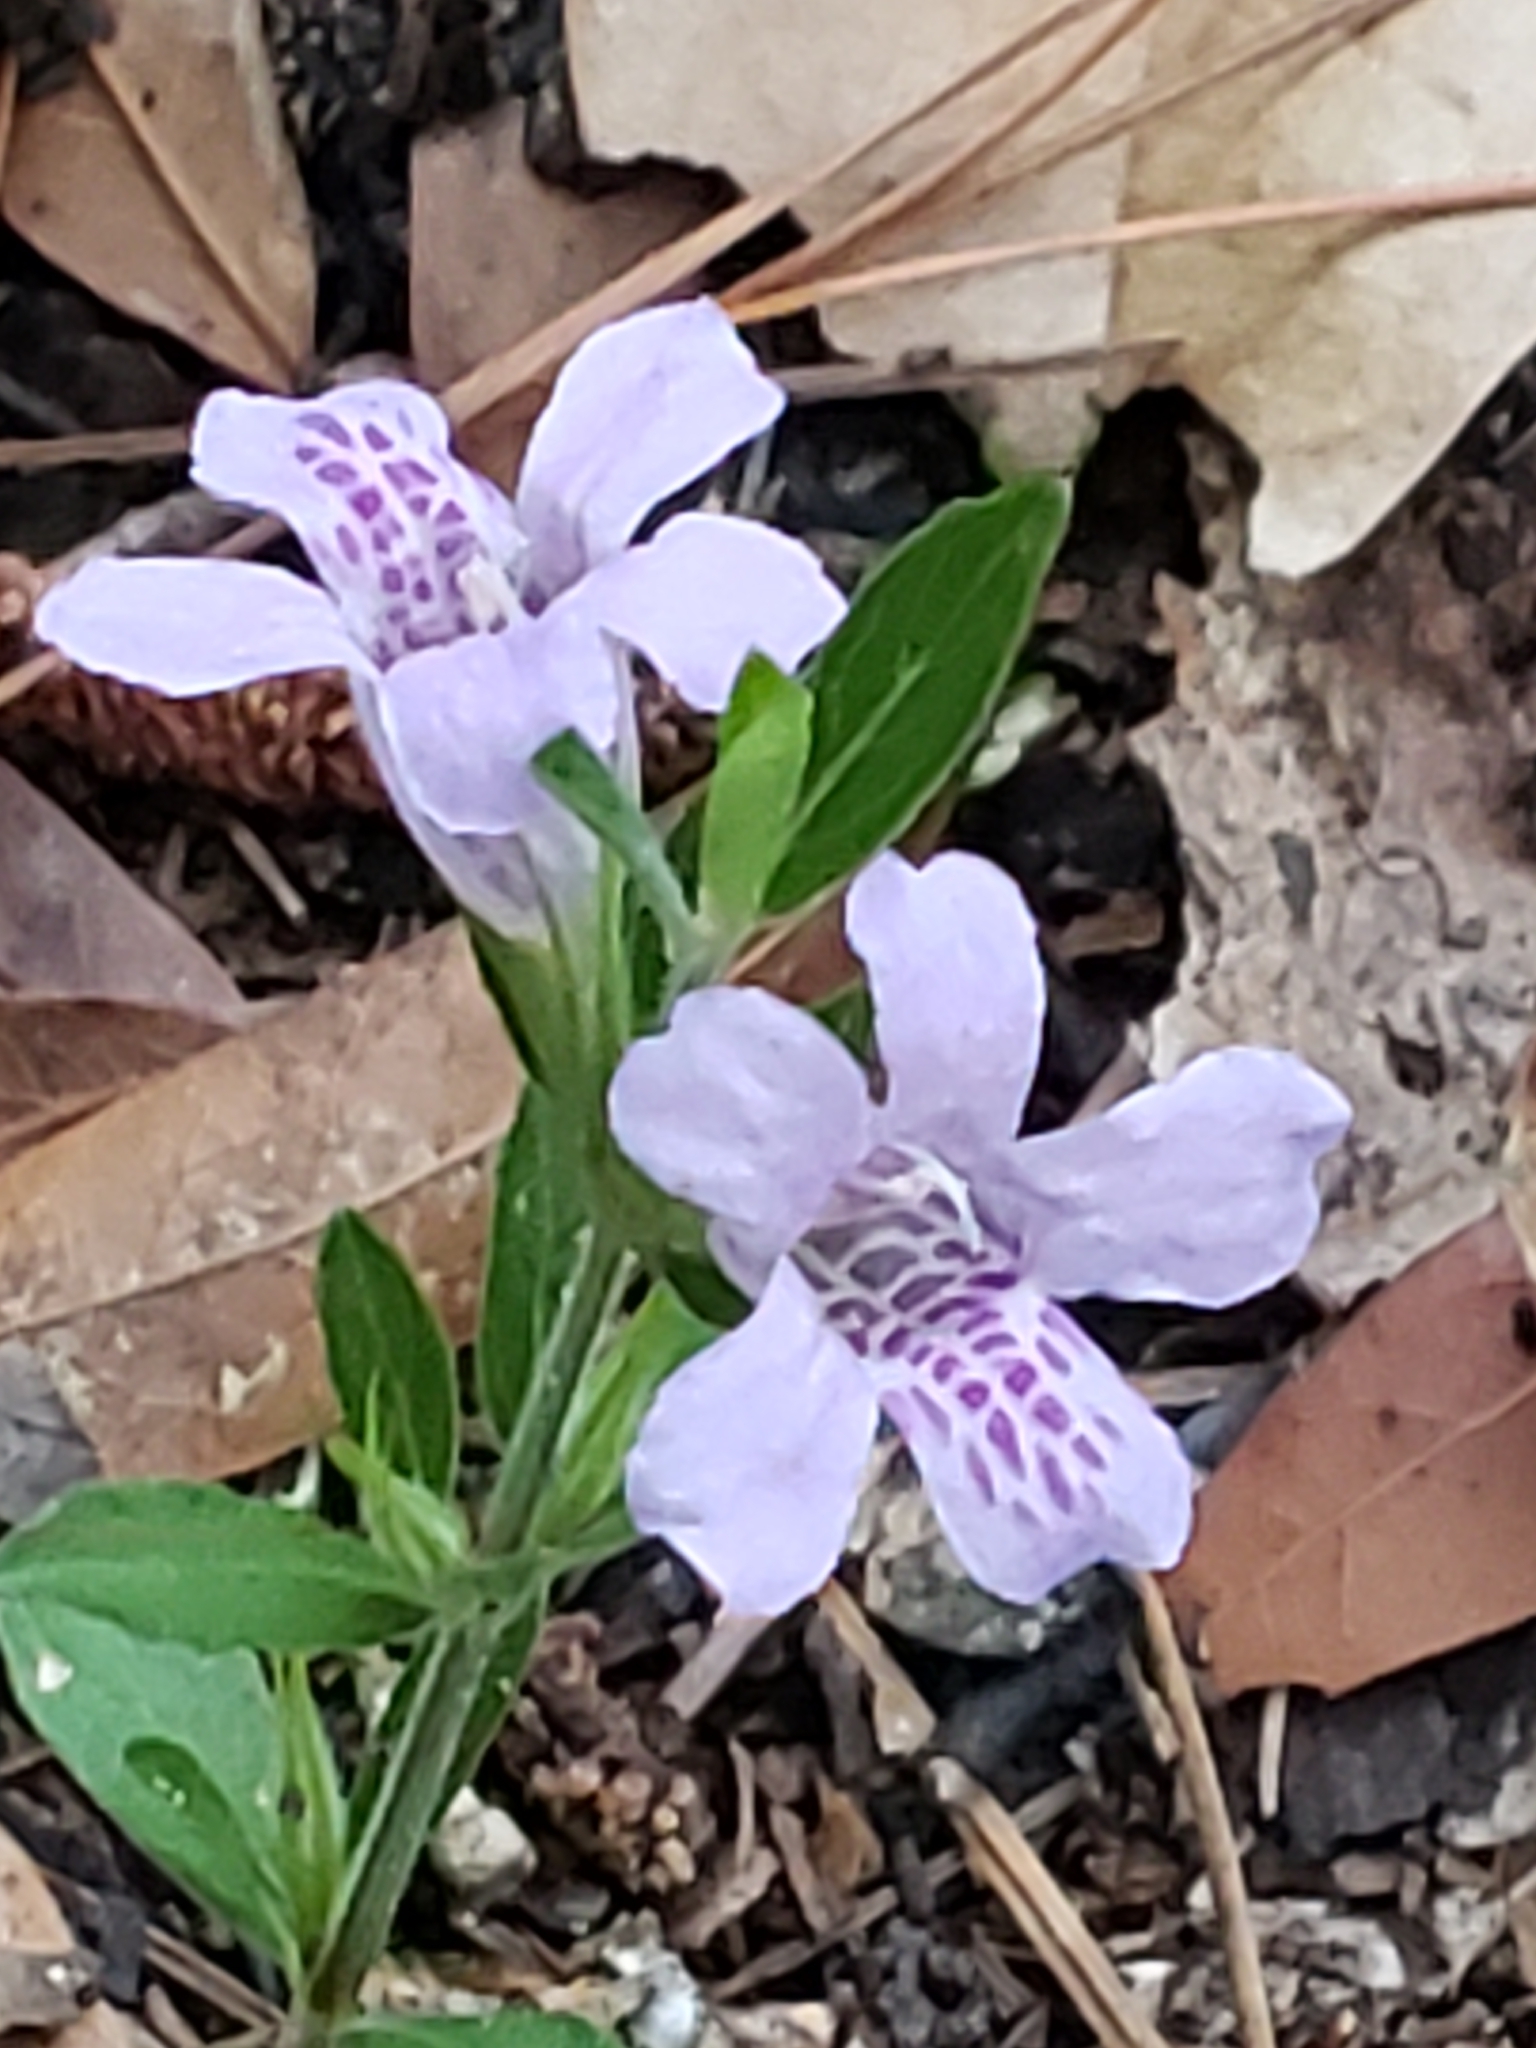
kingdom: Plantae
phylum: Tracheophyta
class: Magnoliopsida
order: Lamiales
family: Acanthaceae
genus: Dyschoriste
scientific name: Dyschoriste oblongifolia
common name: Blue twinflower
